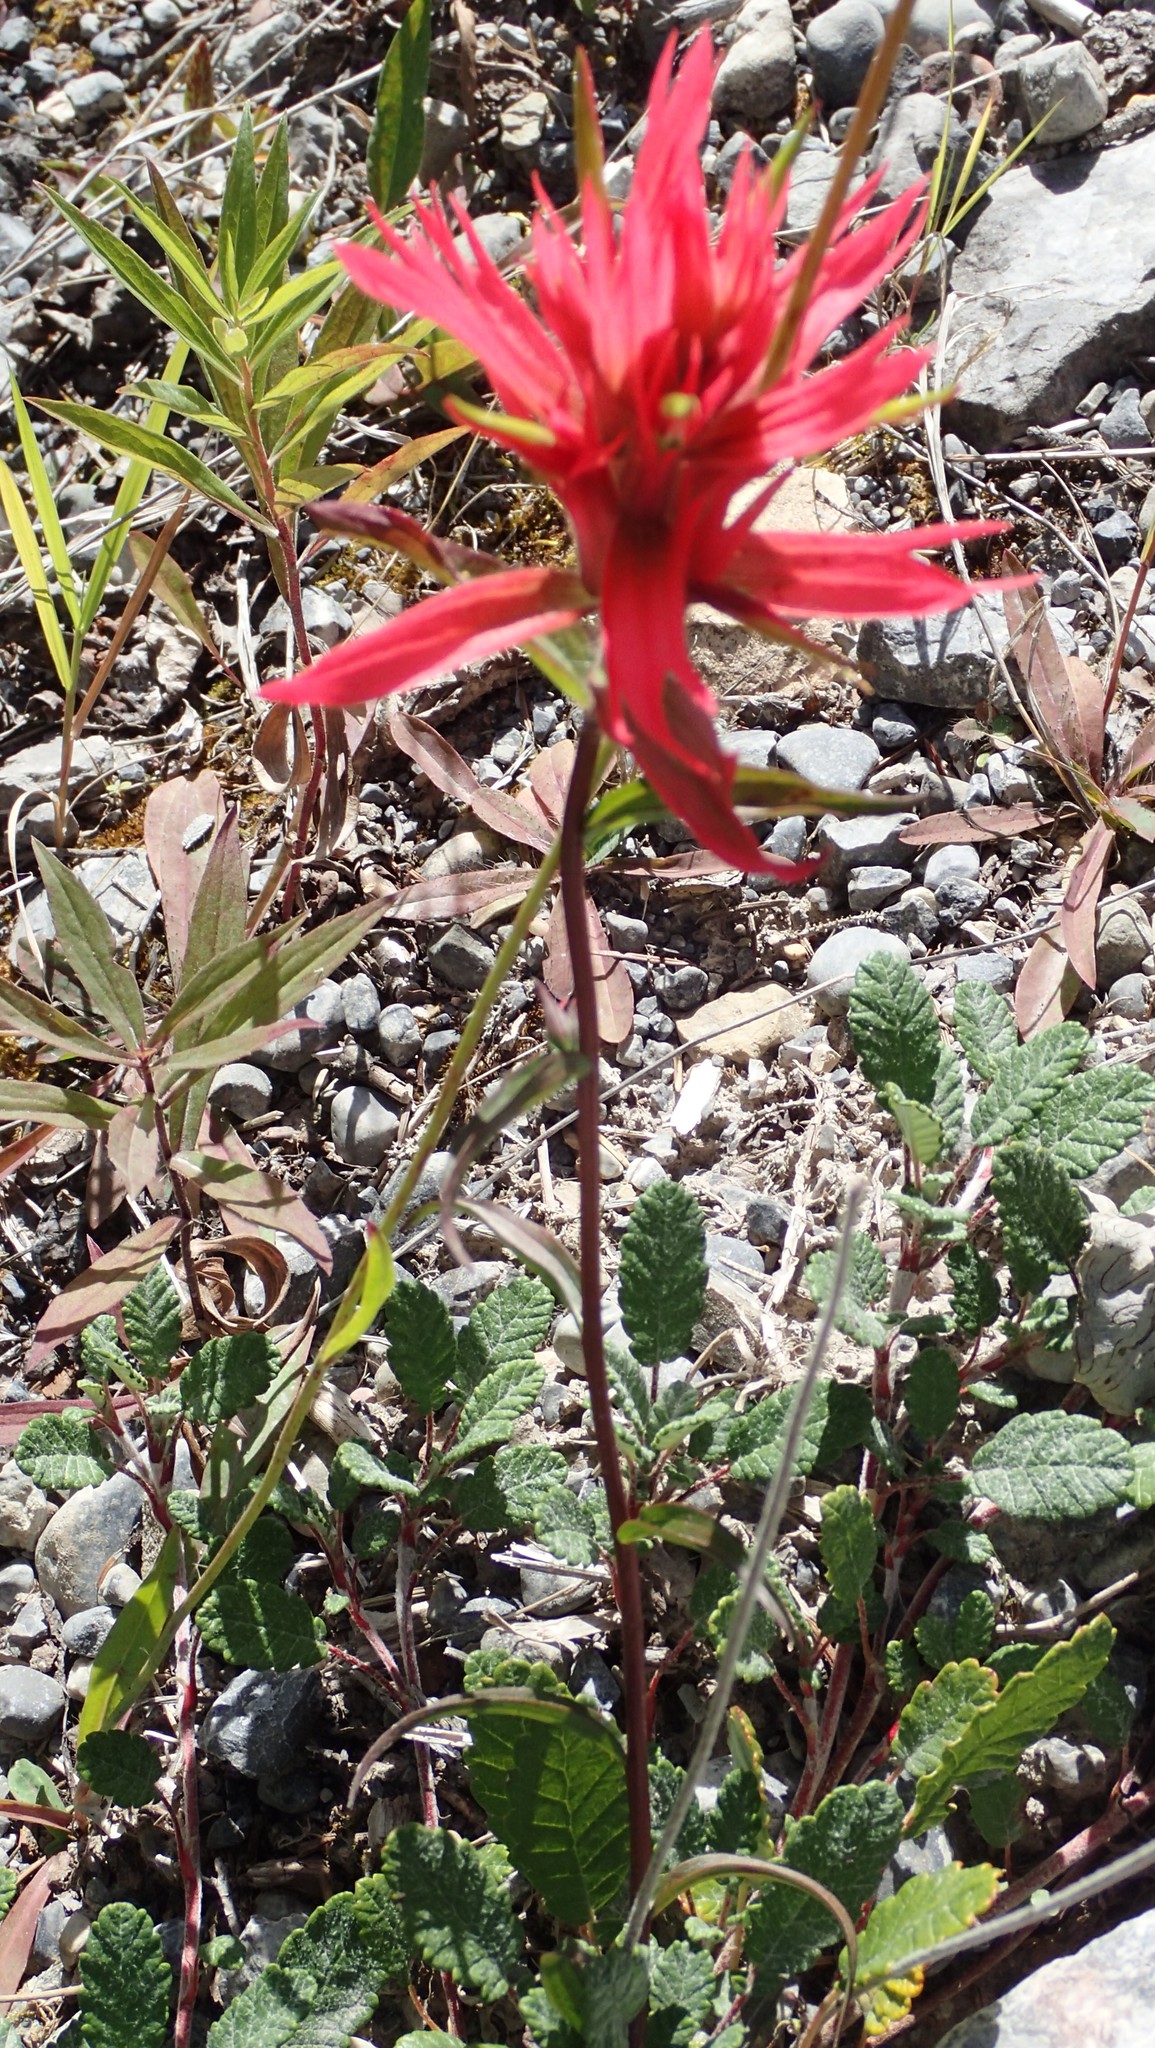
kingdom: Plantae
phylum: Tracheophyta
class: Magnoliopsida
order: Lamiales
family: Orobanchaceae
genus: Castilleja
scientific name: Castilleja miniata
